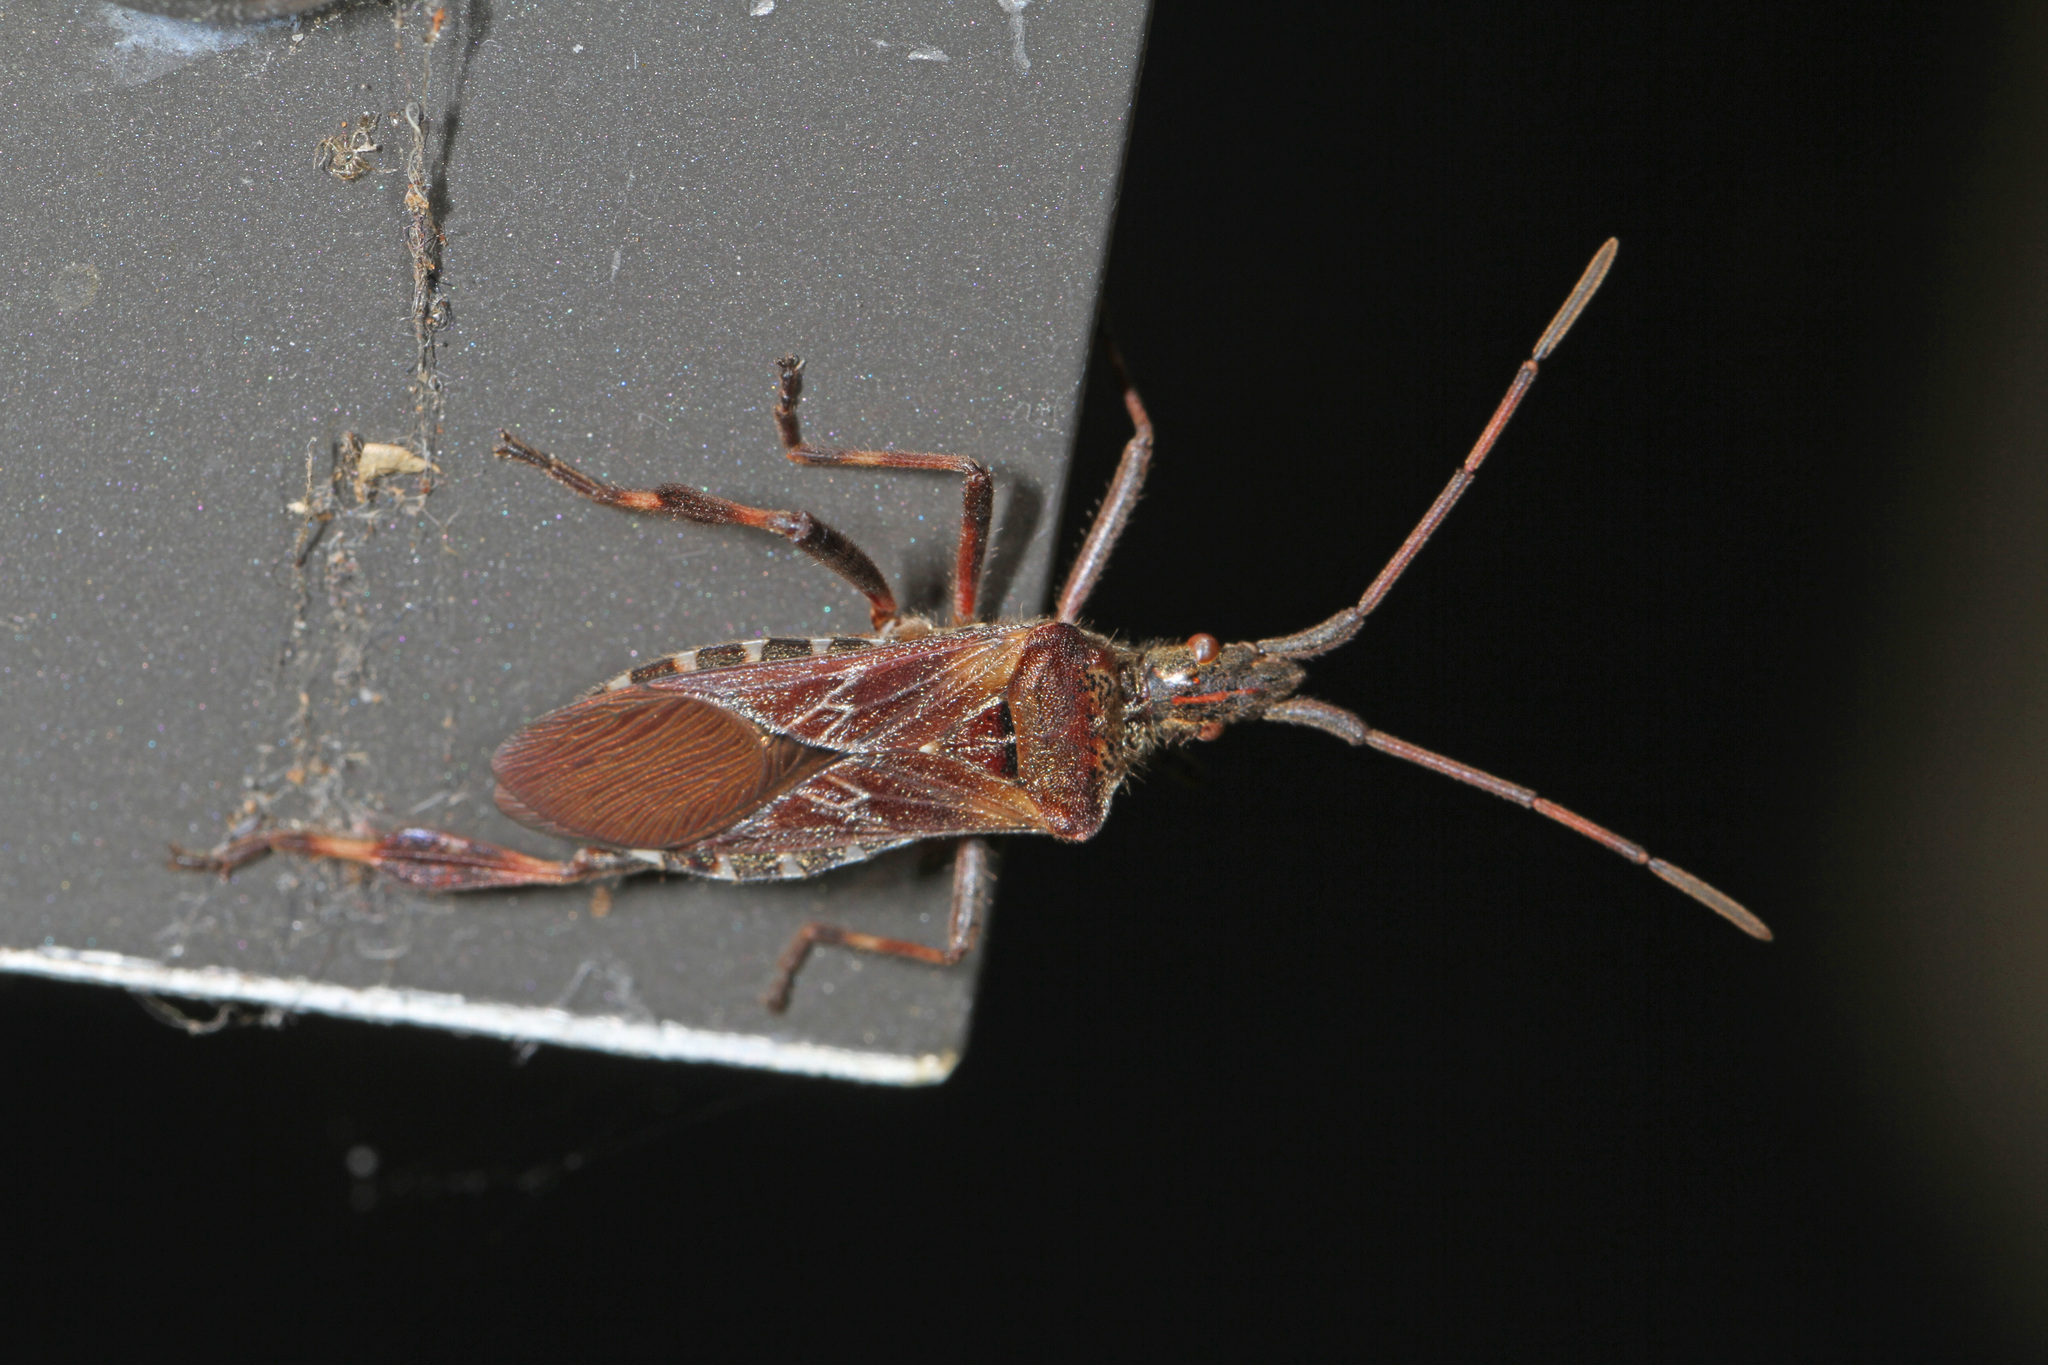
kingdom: Animalia
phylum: Arthropoda
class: Insecta
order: Hemiptera
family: Coreidae
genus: Leptoglossus
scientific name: Leptoglossus occidentalis
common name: Western conifer-seed bug
